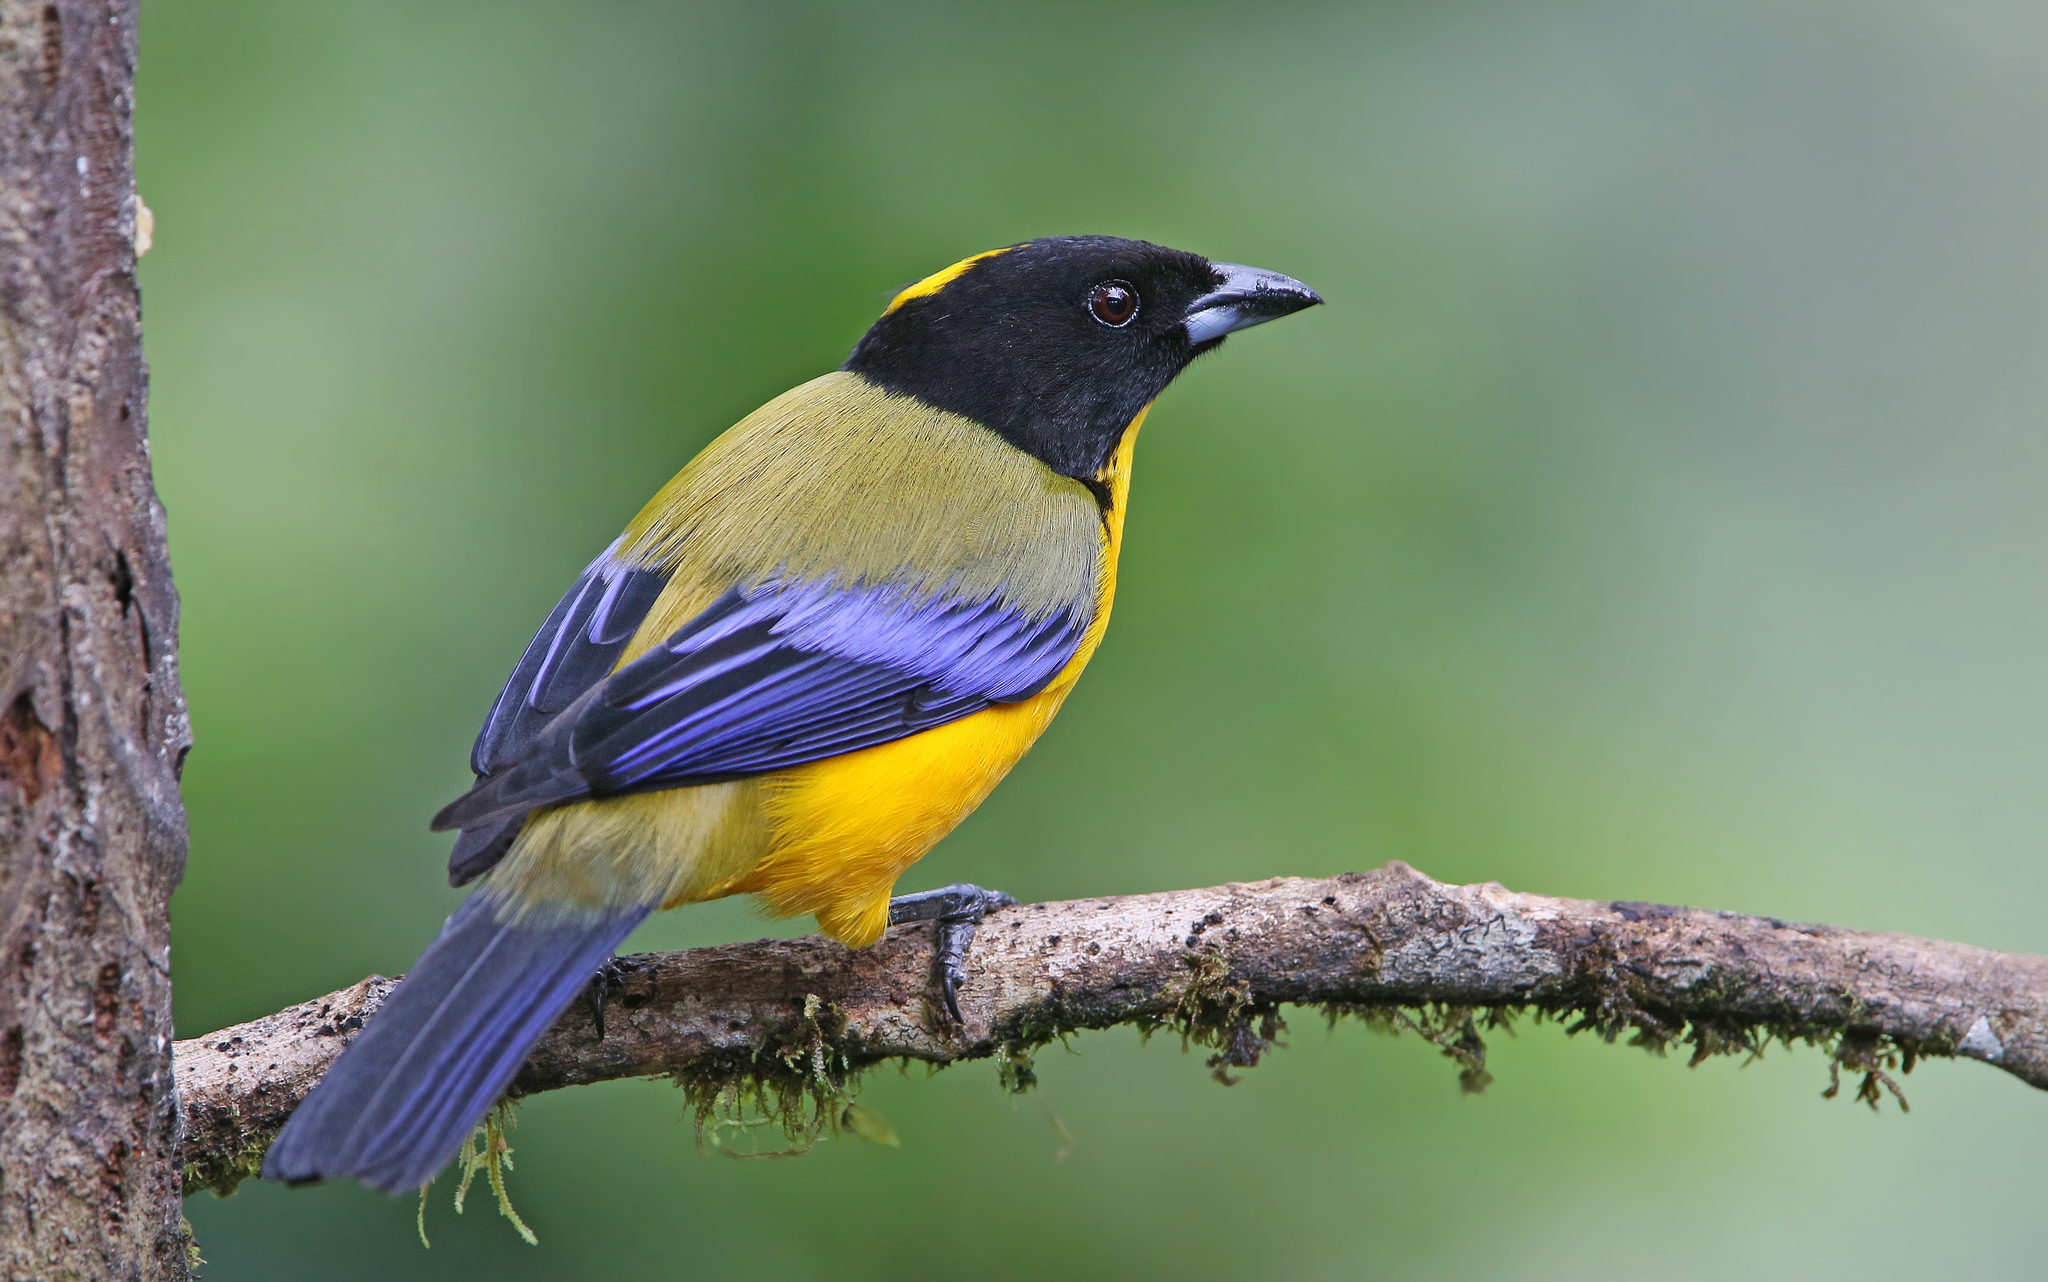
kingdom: Animalia
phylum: Chordata
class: Aves
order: Passeriformes
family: Thraupidae
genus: Anisognathus
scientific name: Anisognathus notabilis
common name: Black-chinned mountain tanager
